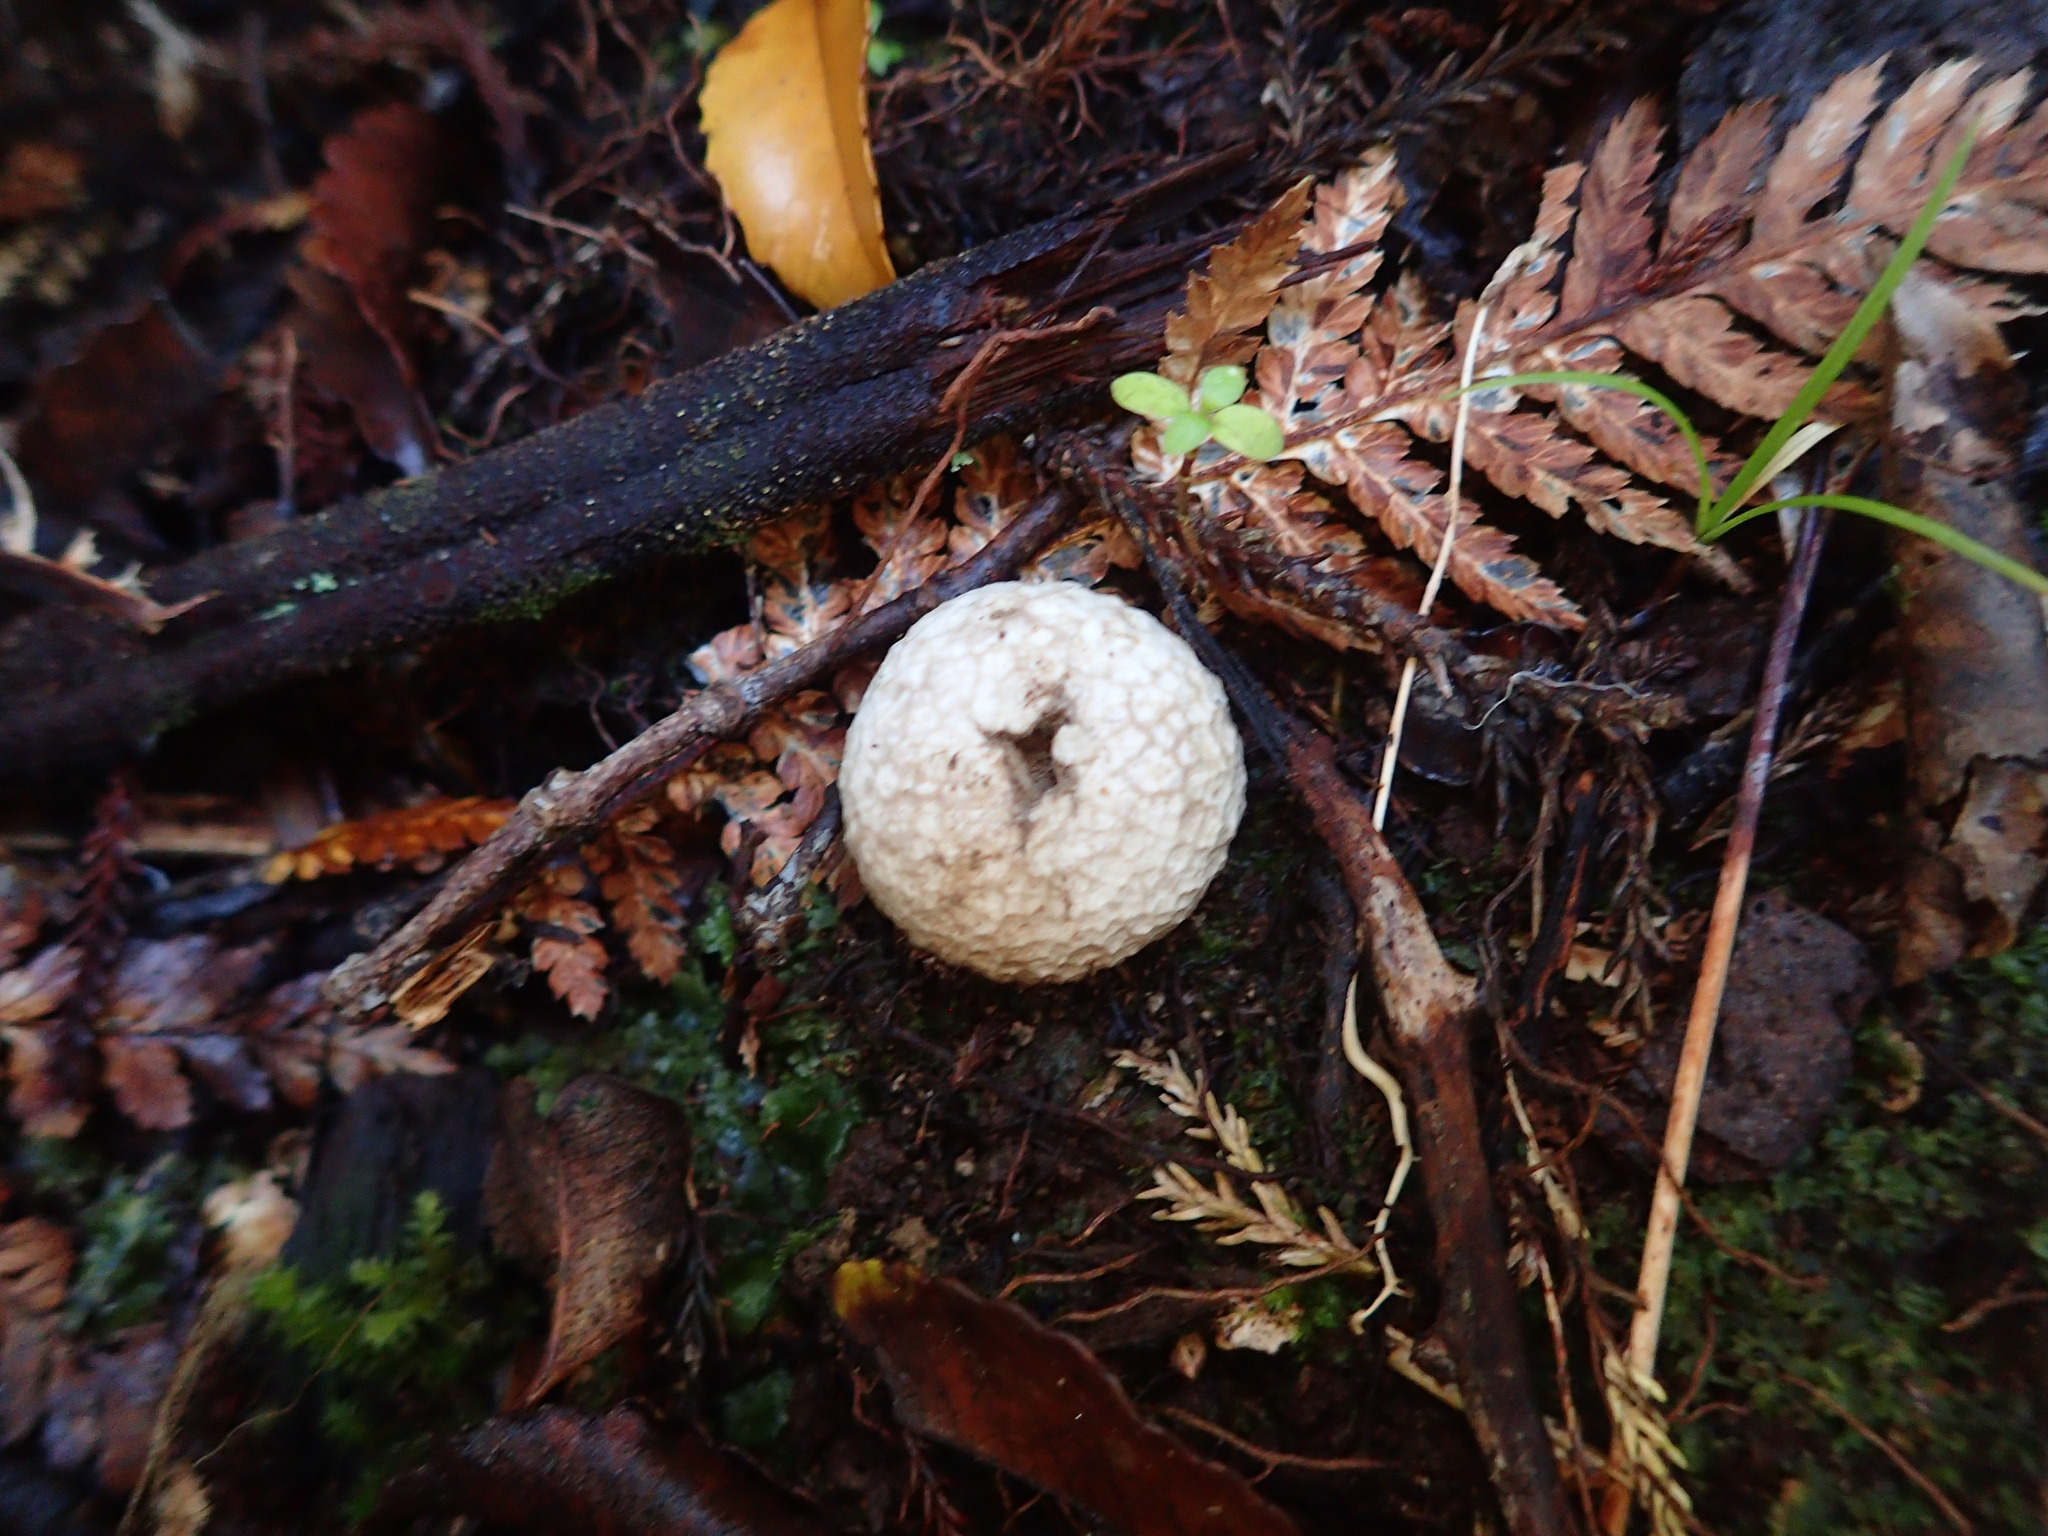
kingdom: Fungi
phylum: Basidiomycota
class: Agaricomycetes
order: Agaricales
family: Lycoperdaceae
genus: Lycoperdon
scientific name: Lycoperdon compactum
